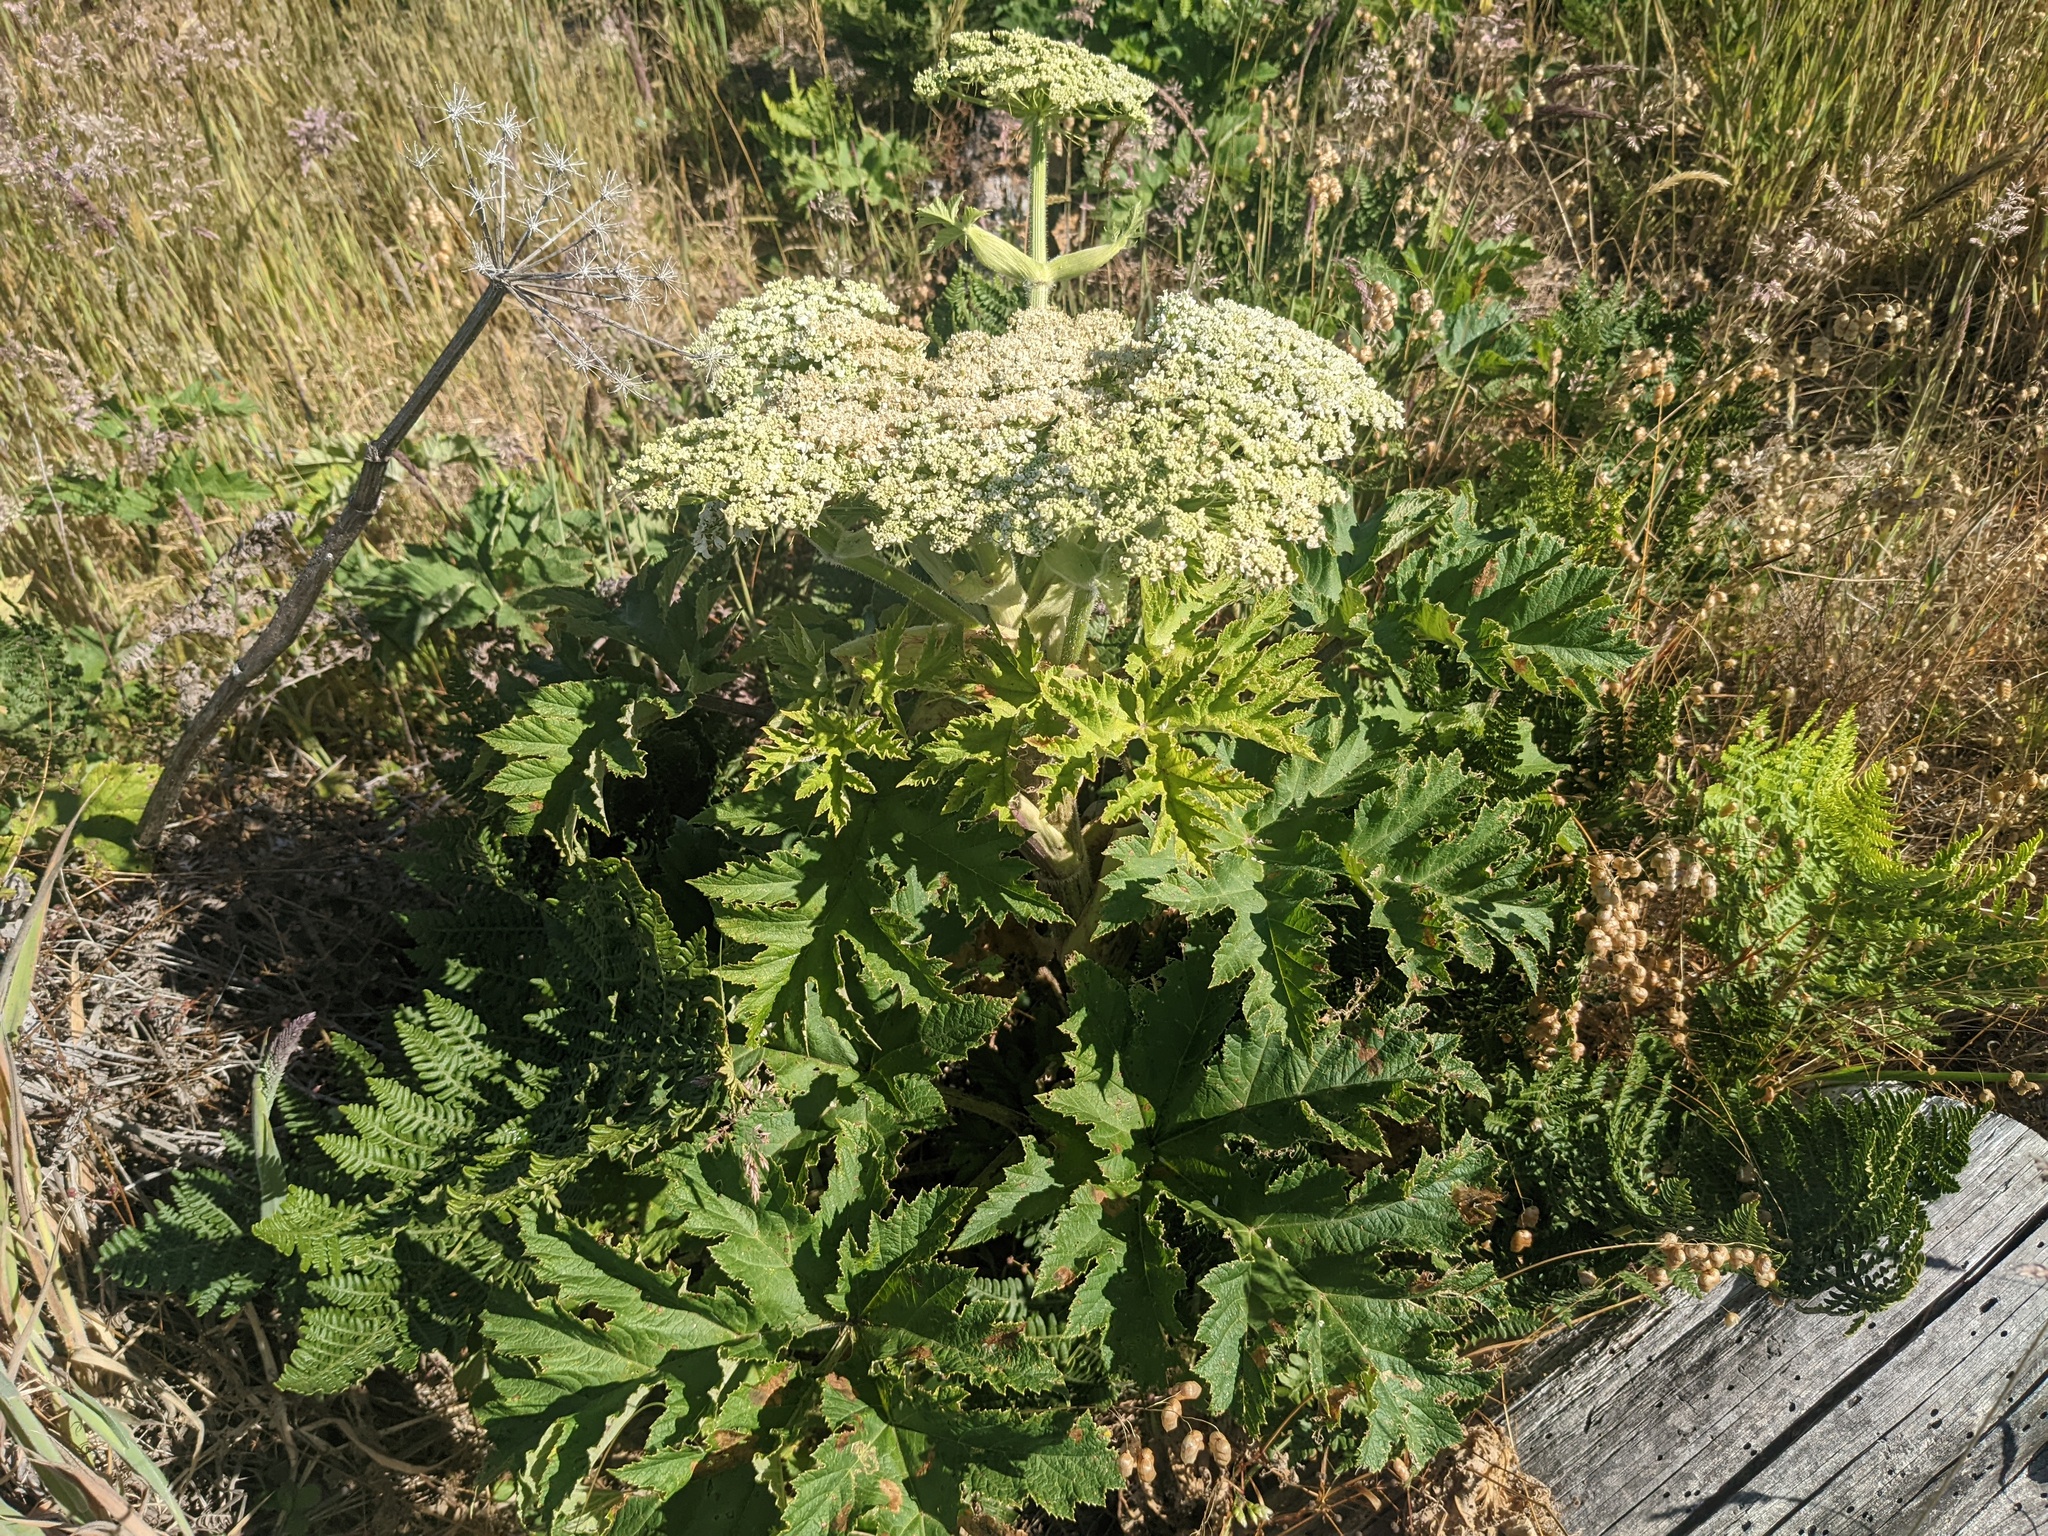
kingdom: Plantae
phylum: Tracheophyta
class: Magnoliopsida
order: Apiales
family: Apiaceae
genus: Heracleum
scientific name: Heracleum maximum
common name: American cow parsnip
